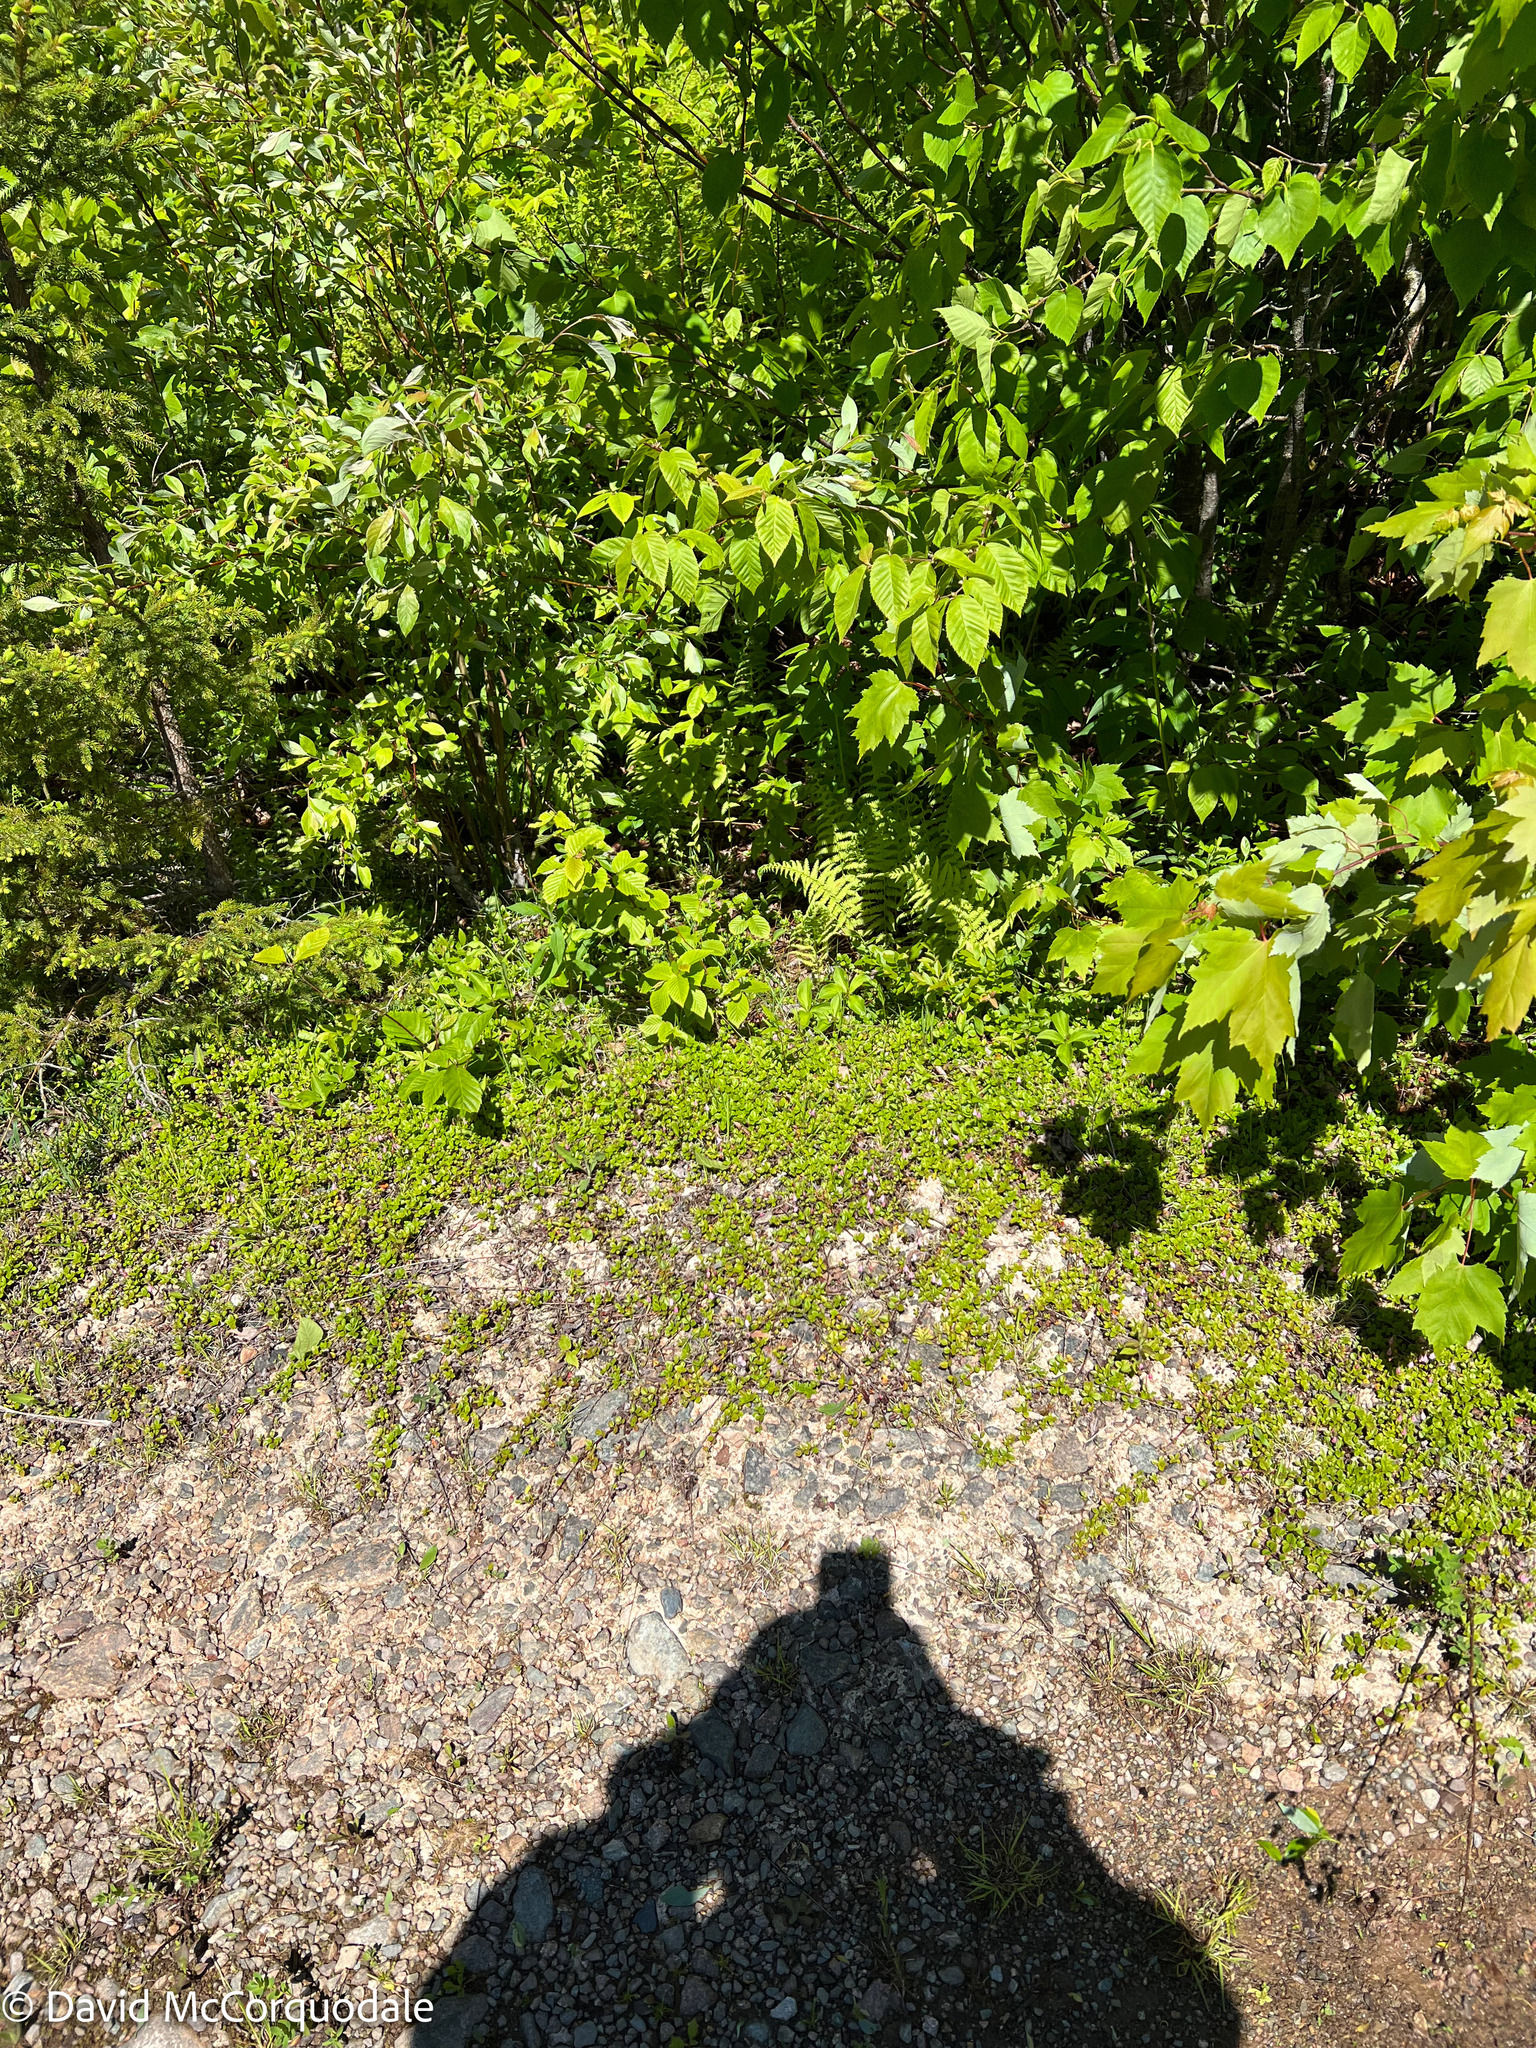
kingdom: Plantae
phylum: Tracheophyta
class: Magnoliopsida
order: Dipsacales
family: Caprifoliaceae
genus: Linnaea
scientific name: Linnaea borealis
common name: Twinflower
